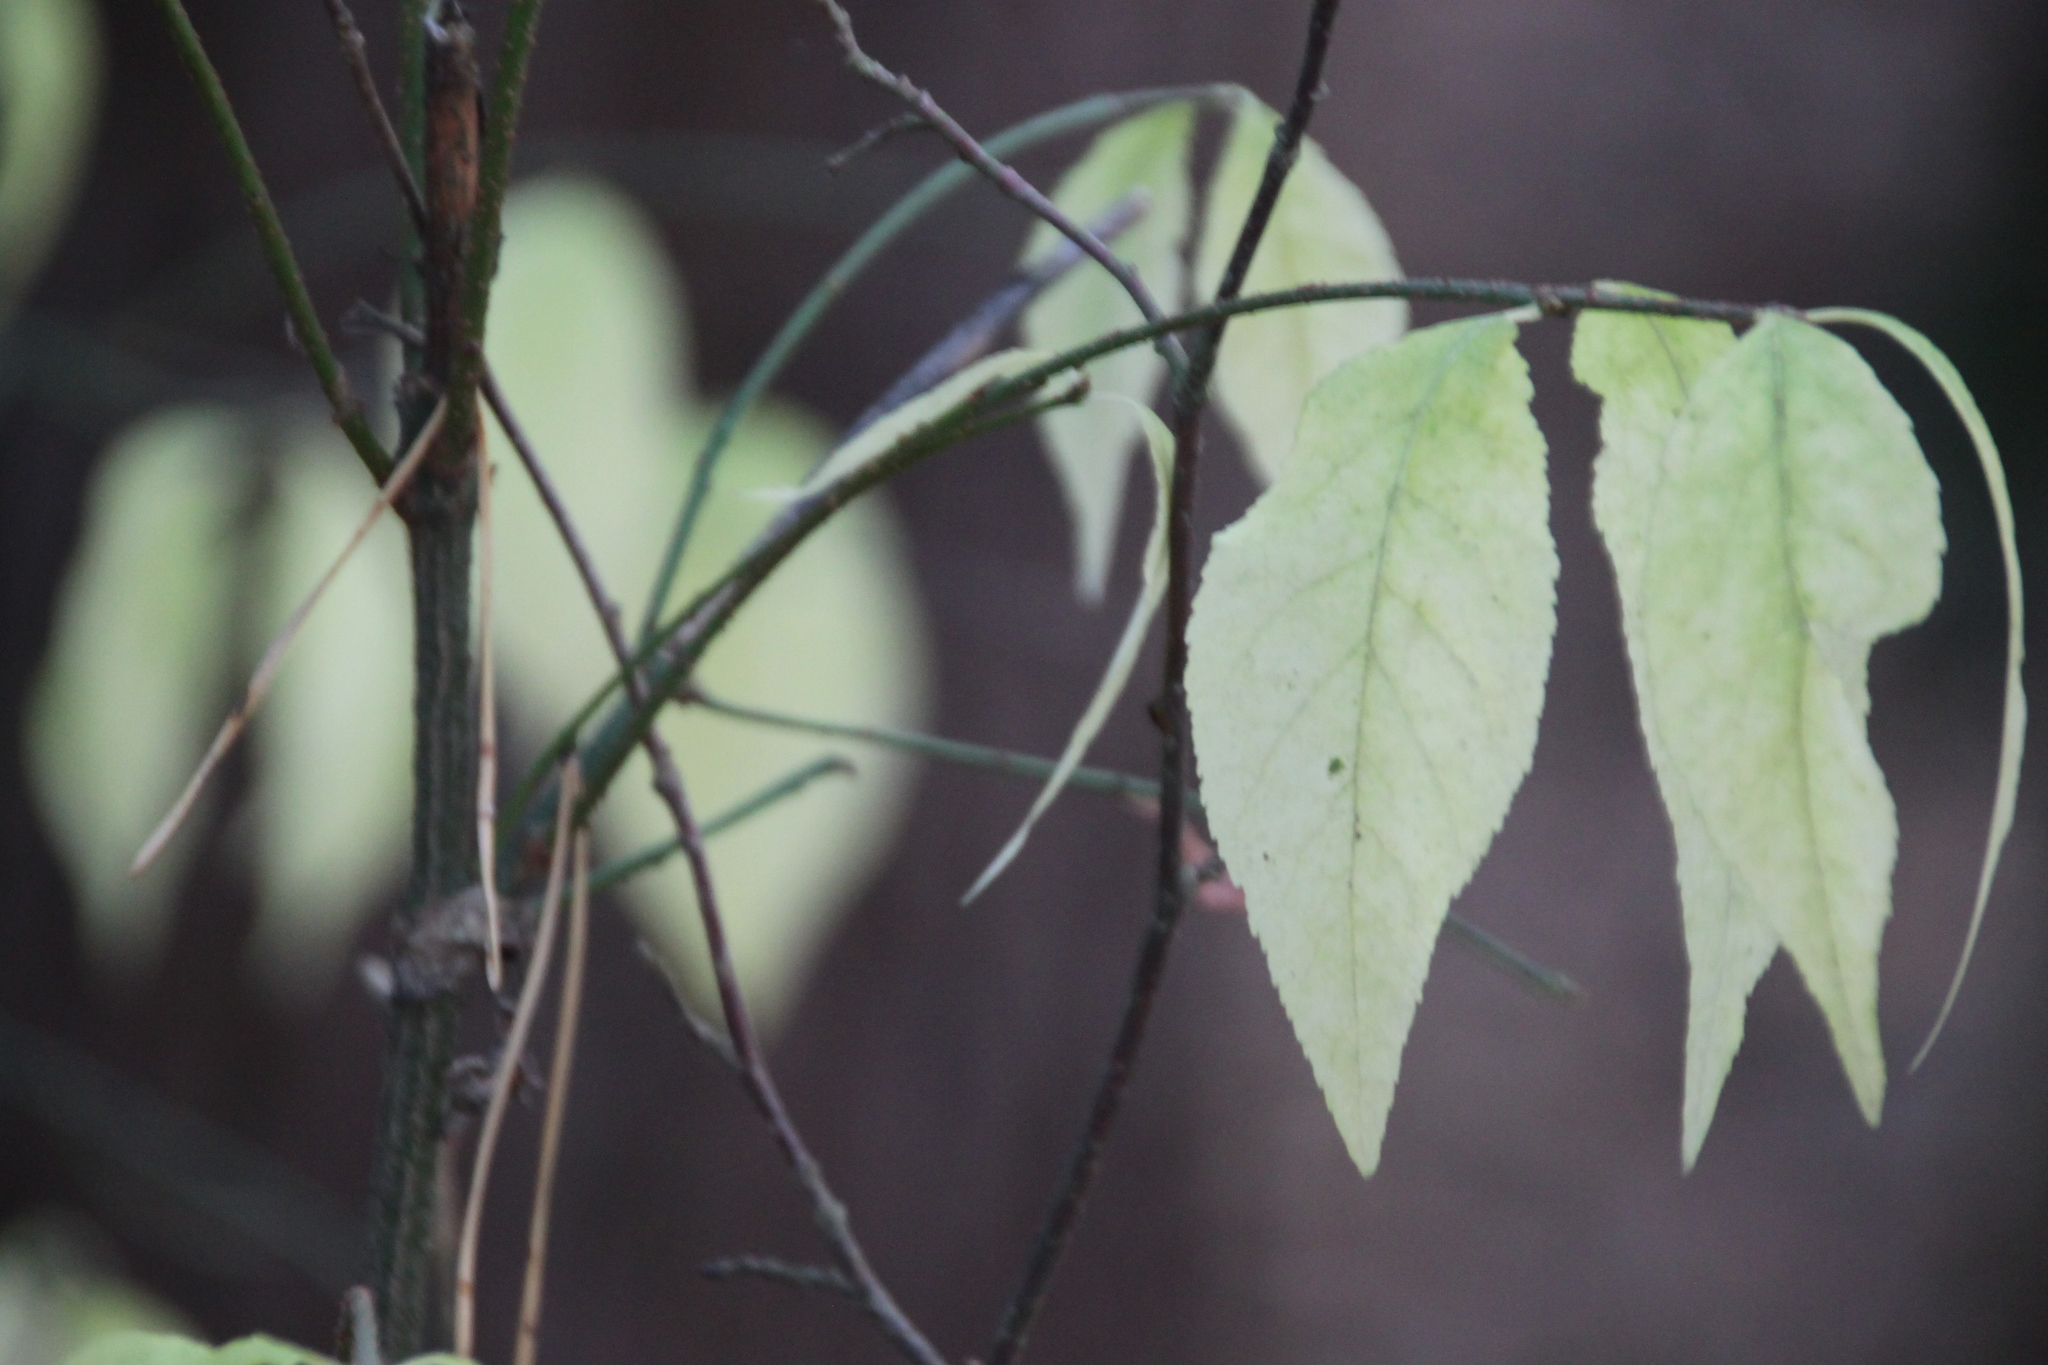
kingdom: Plantae
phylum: Tracheophyta
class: Magnoliopsida
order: Celastrales
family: Celastraceae
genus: Euonymus
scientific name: Euonymus verrucosus
